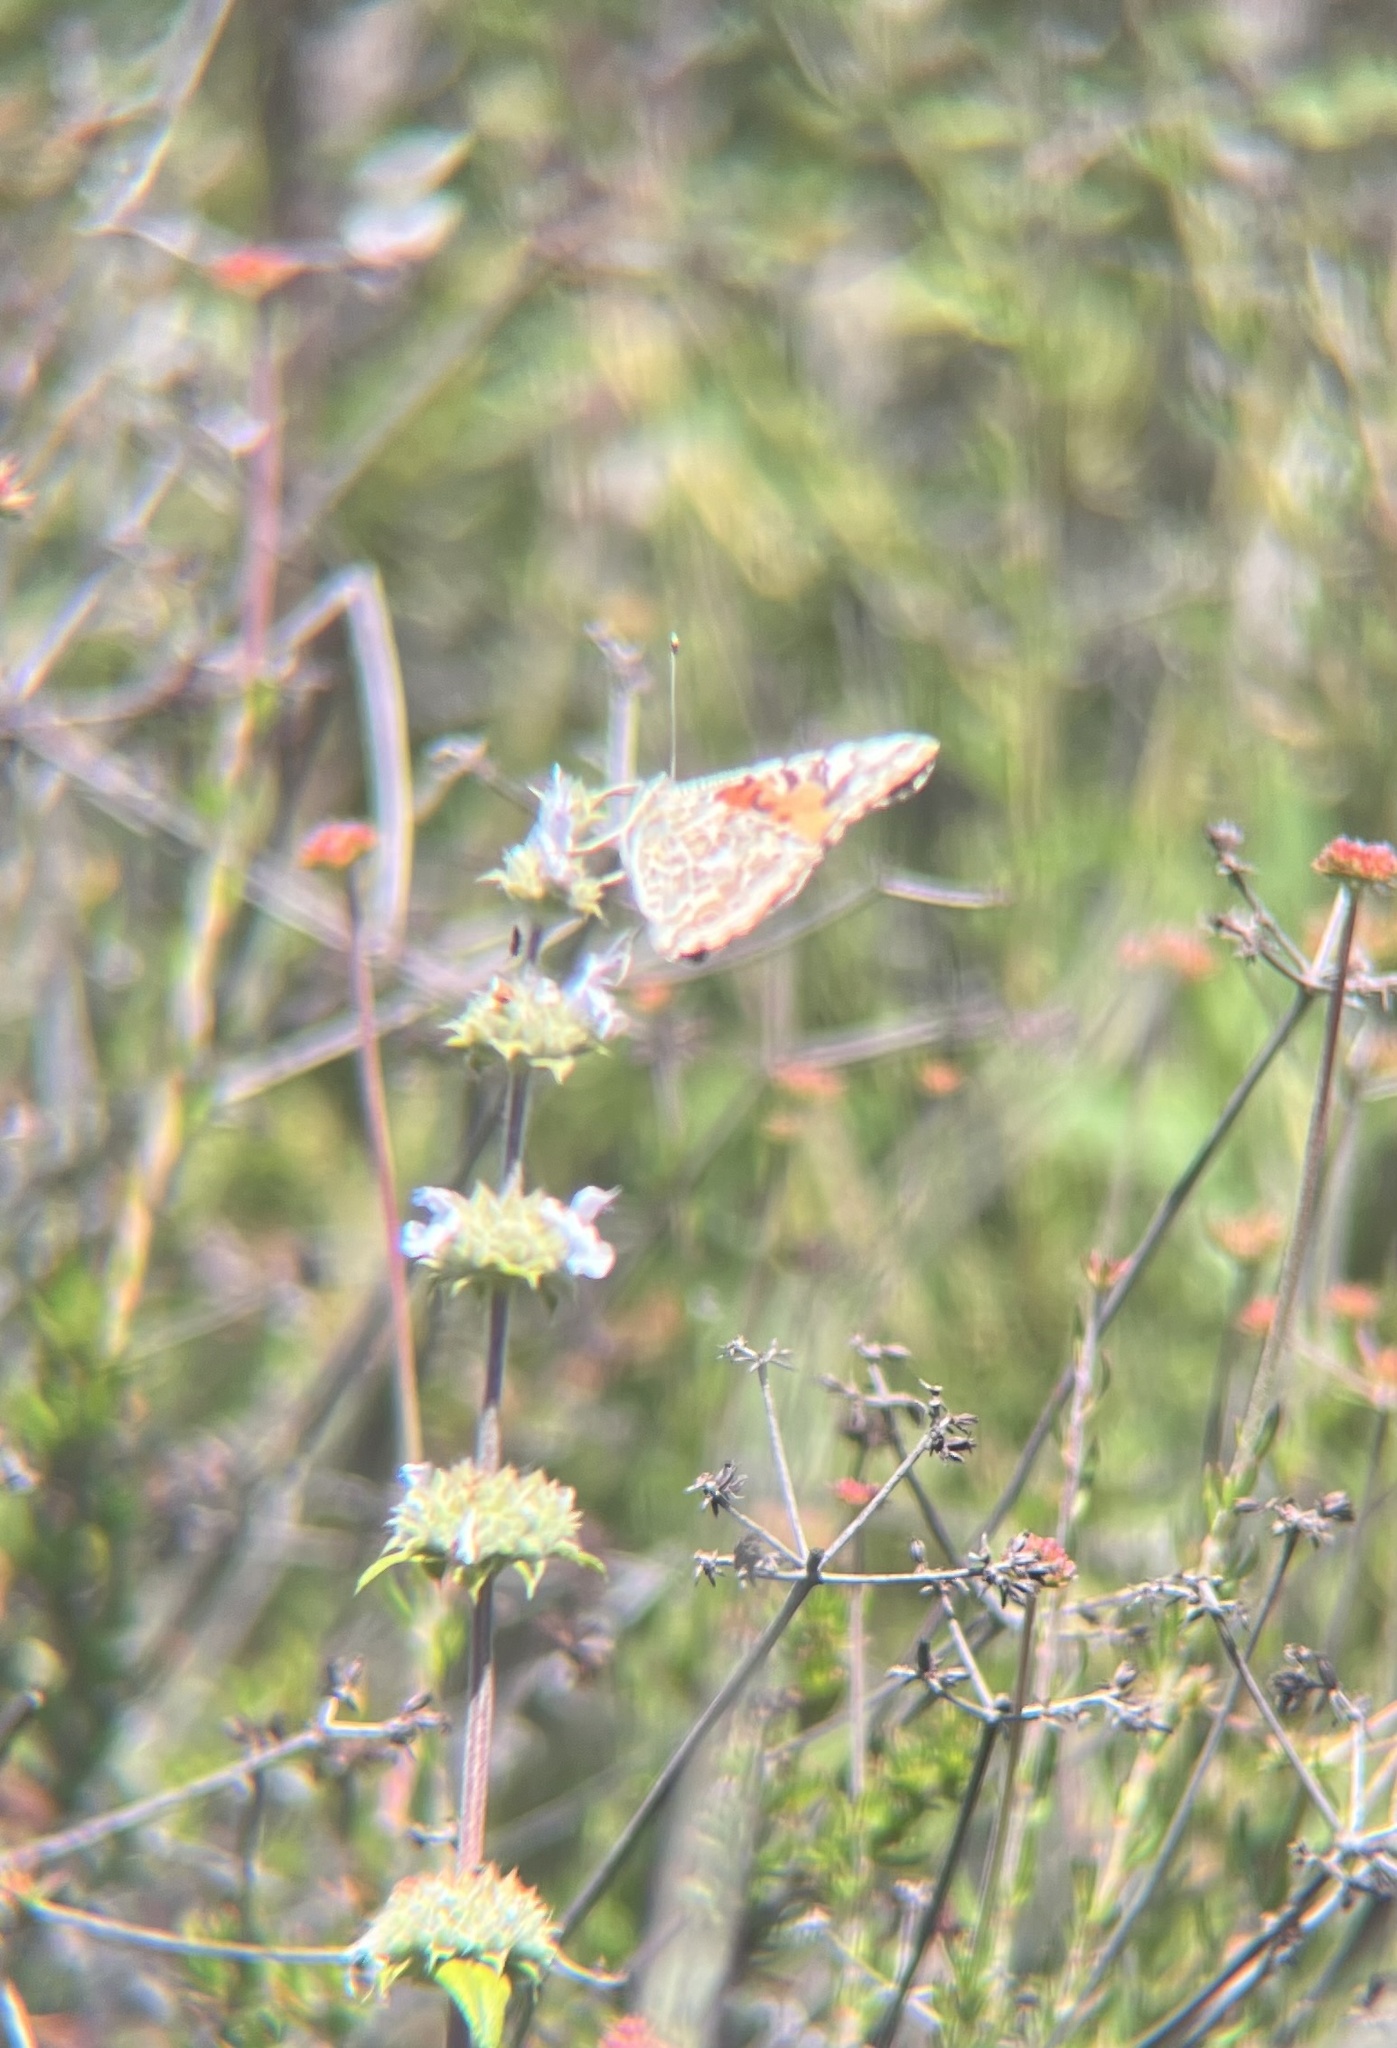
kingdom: Animalia
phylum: Arthropoda
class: Insecta
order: Lepidoptera
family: Nymphalidae
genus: Vanessa
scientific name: Vanessa cardui
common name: Painted lady
